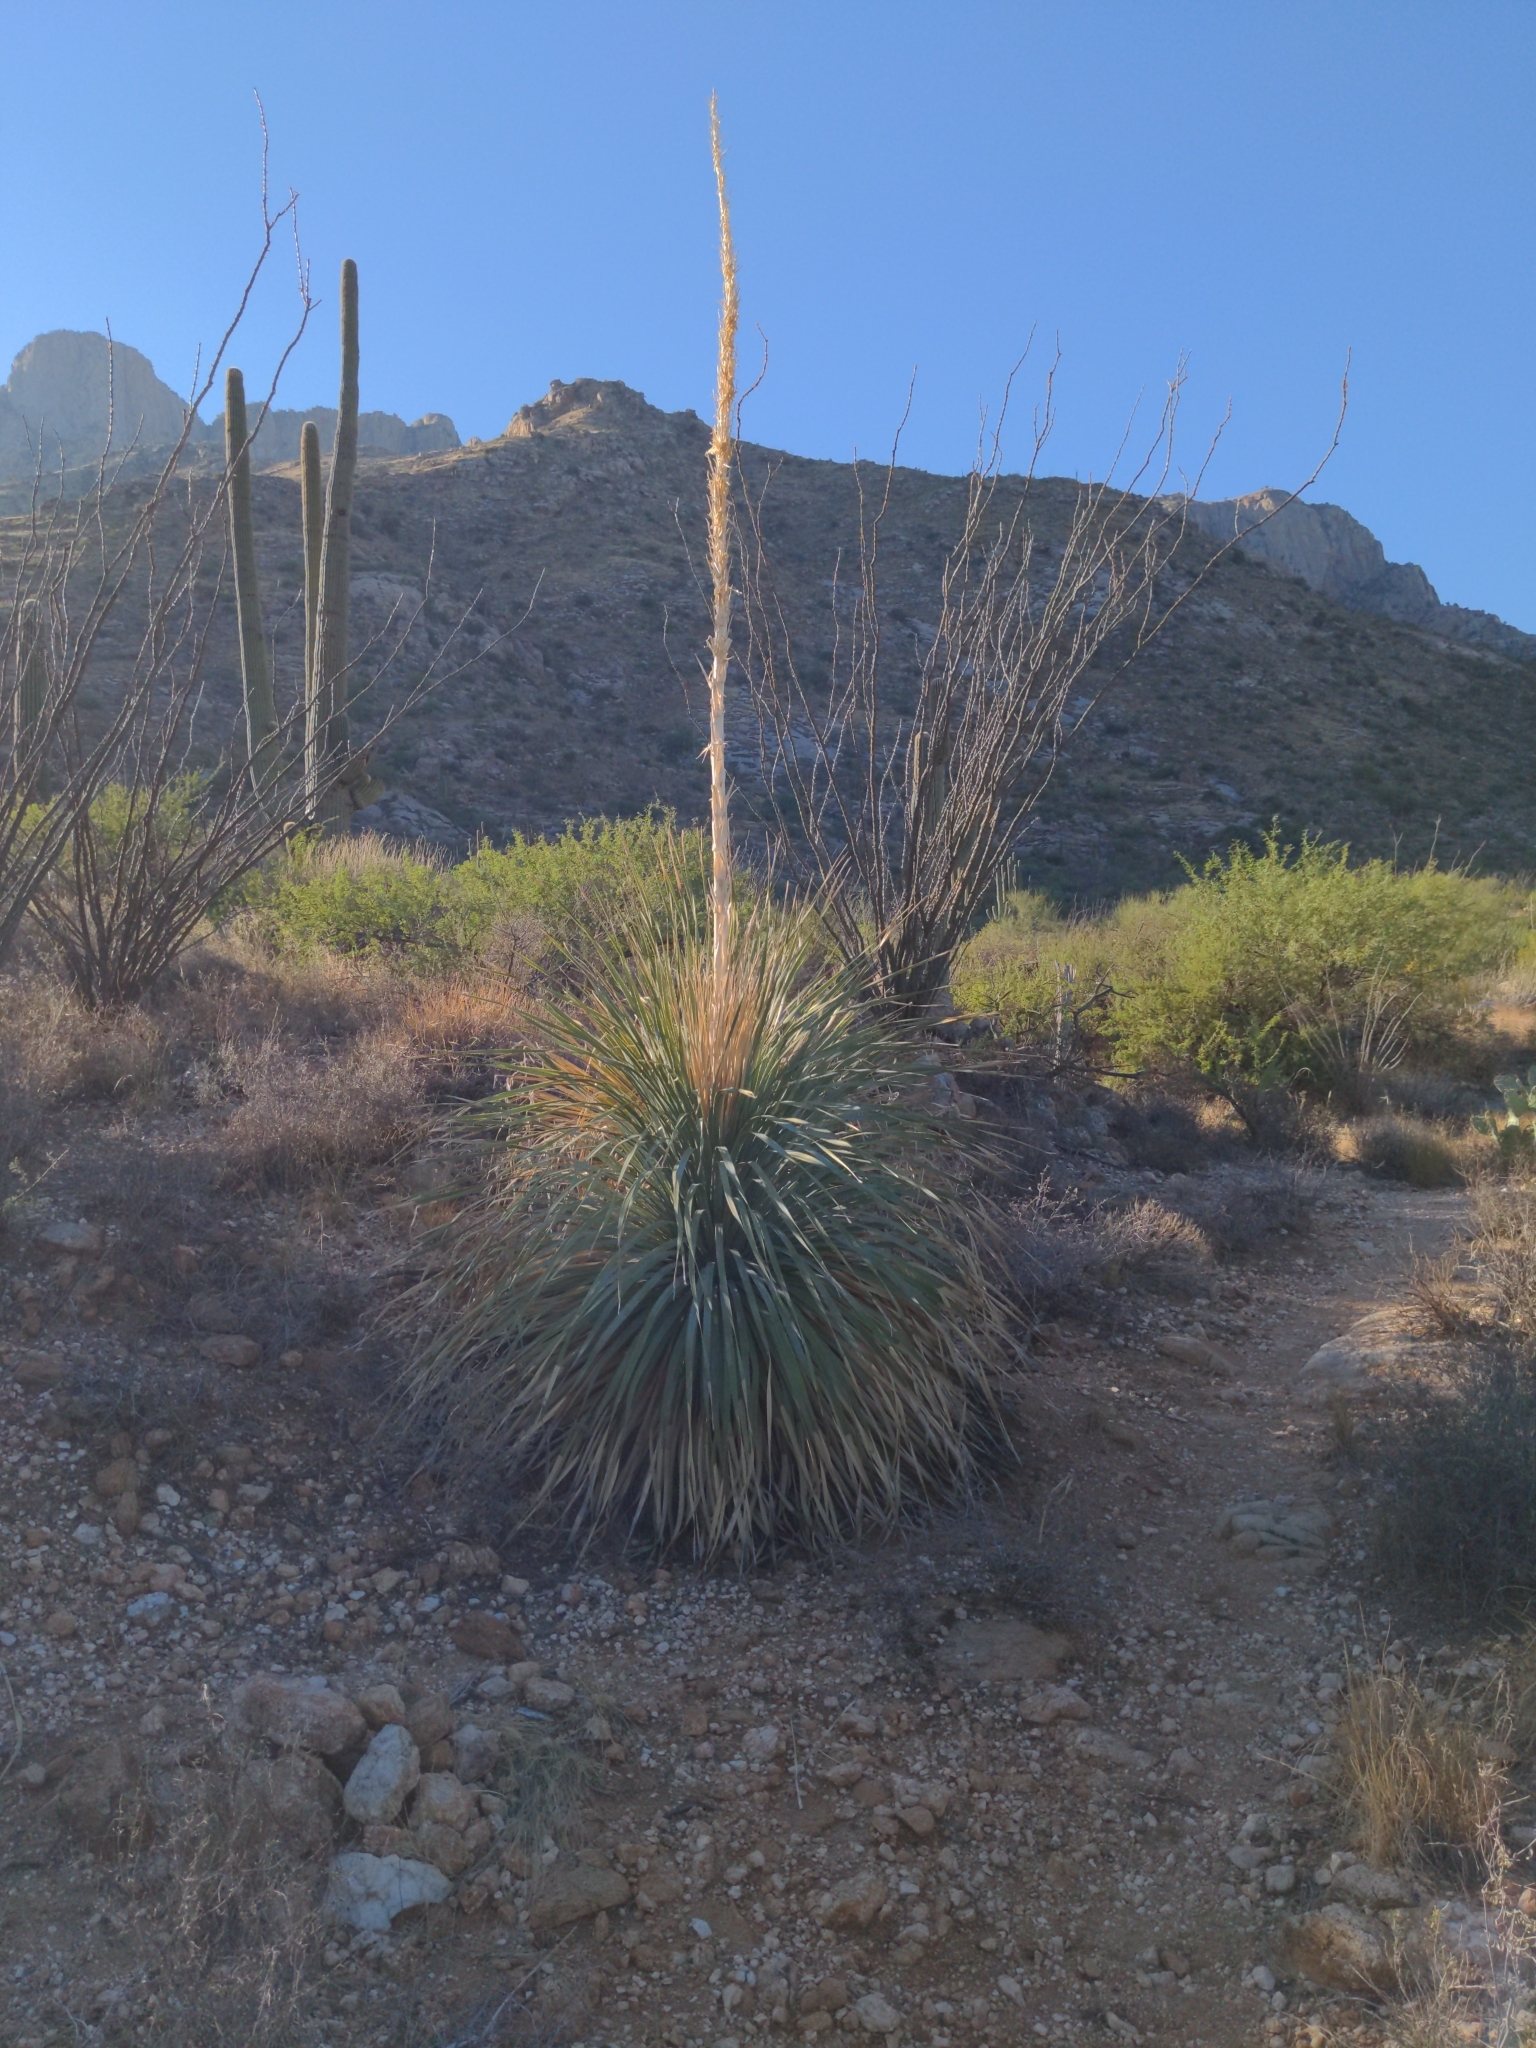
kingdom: Plantae
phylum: Tracheophyta
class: Liliopsida
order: Asparagales
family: Asparagaceae
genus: Dasylirion
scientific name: Dasylirion wheeleri
